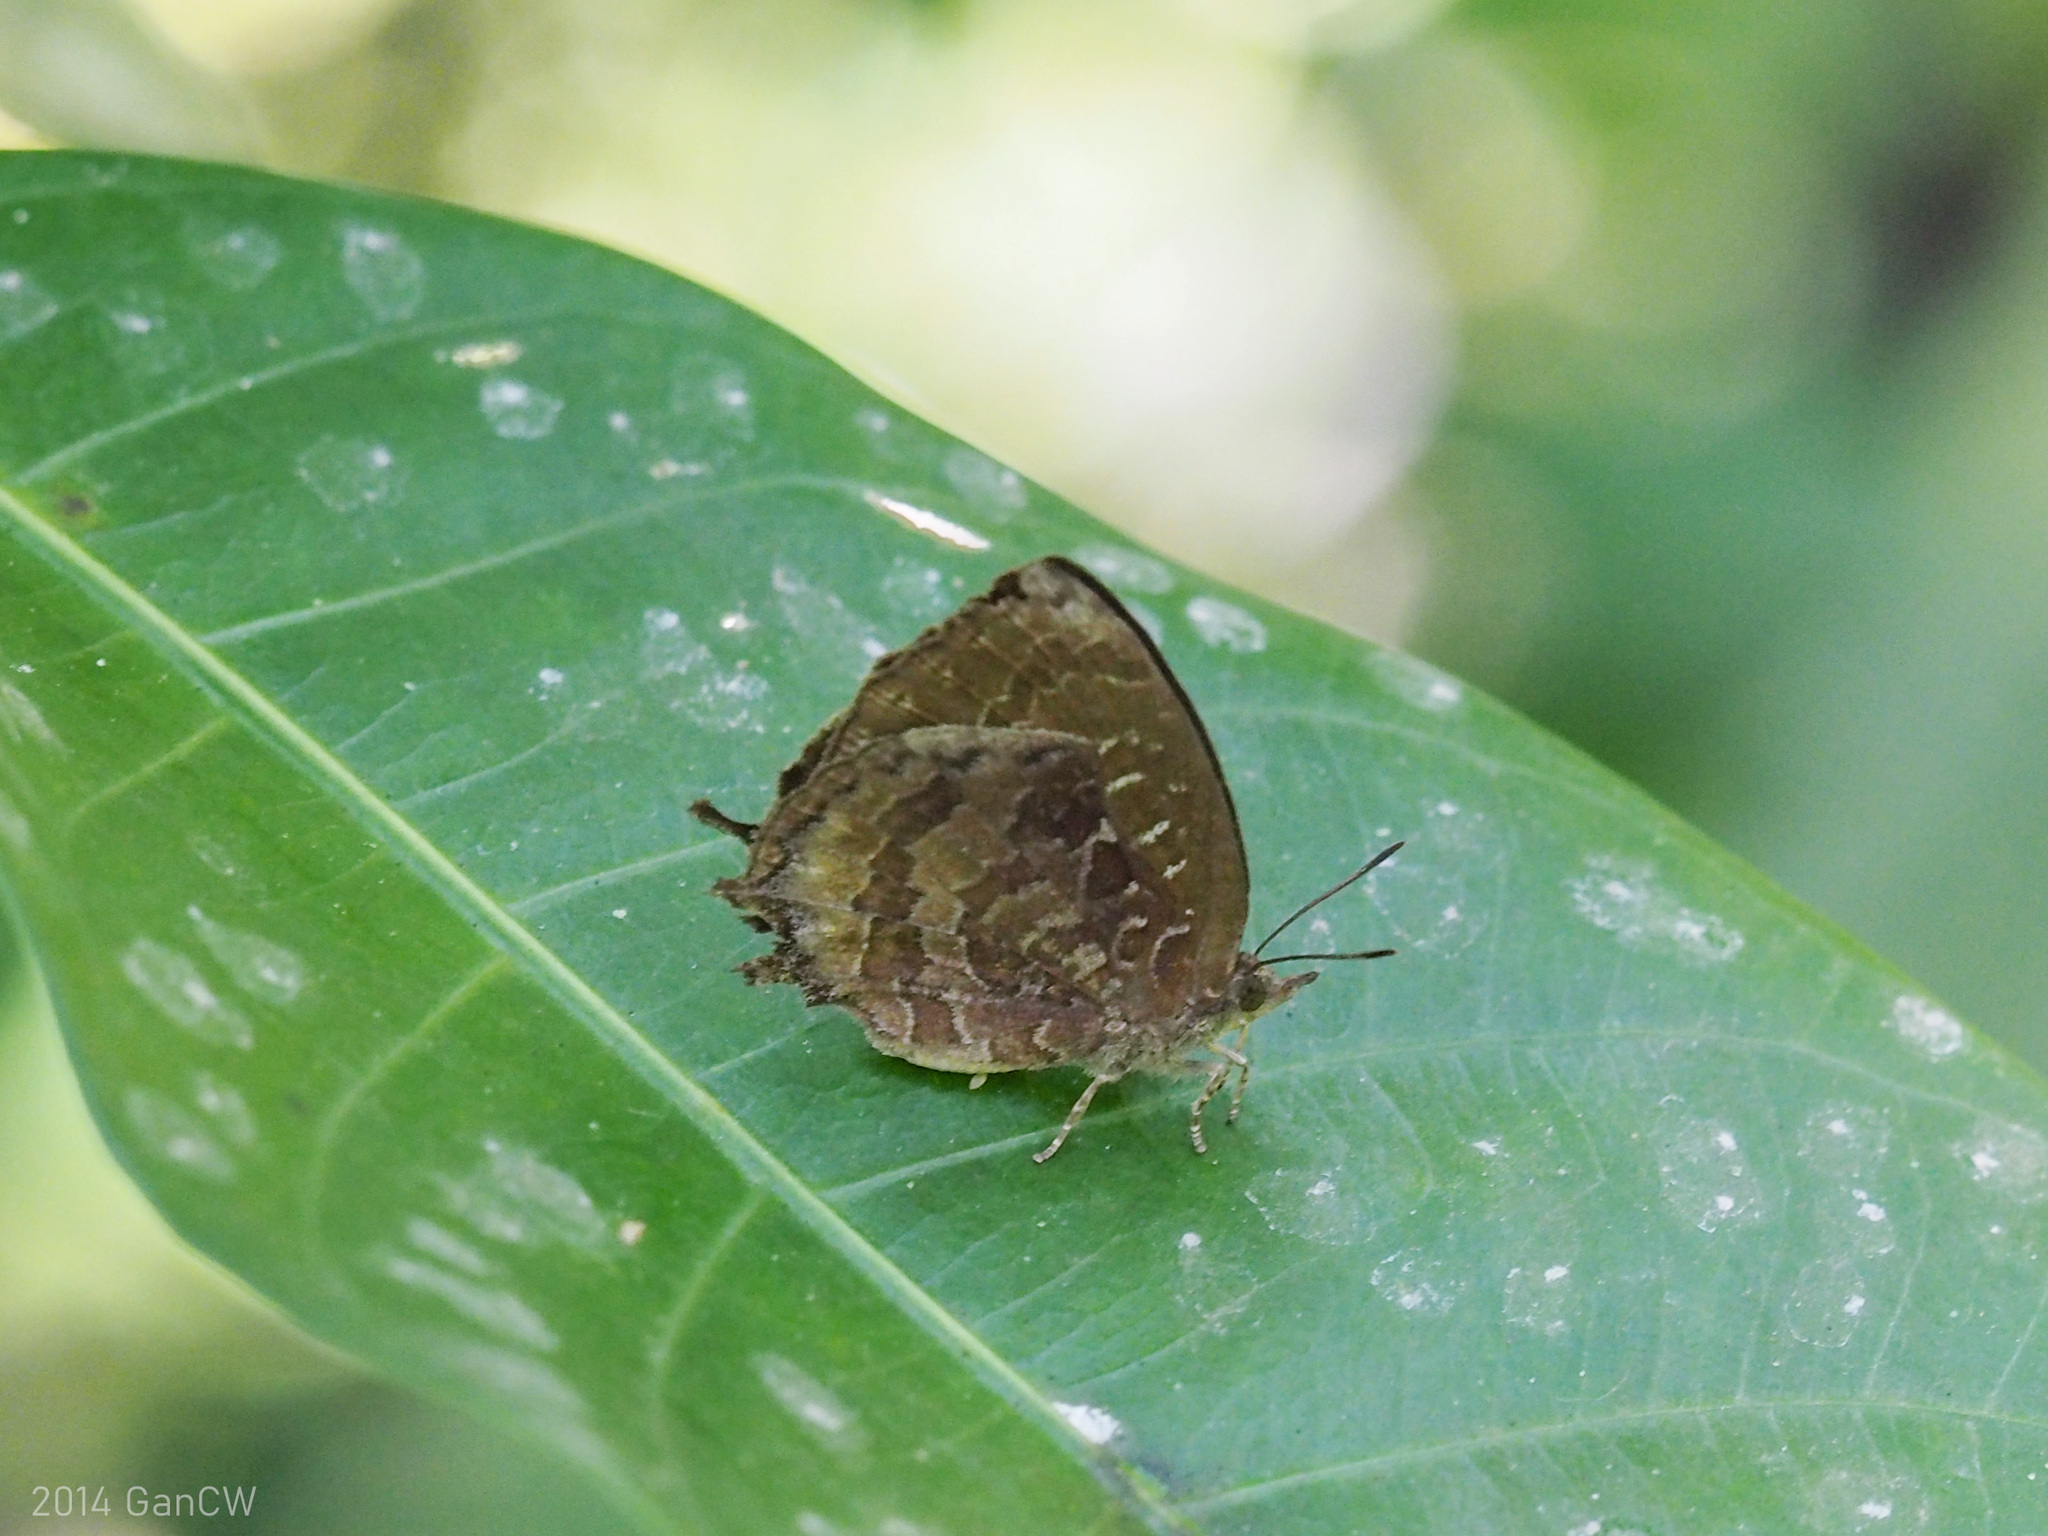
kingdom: Animalia
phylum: Arthropoda
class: Insecta
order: Lepidoptera
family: Lycaenidae
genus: Mahathala
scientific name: Mahathala ameria
